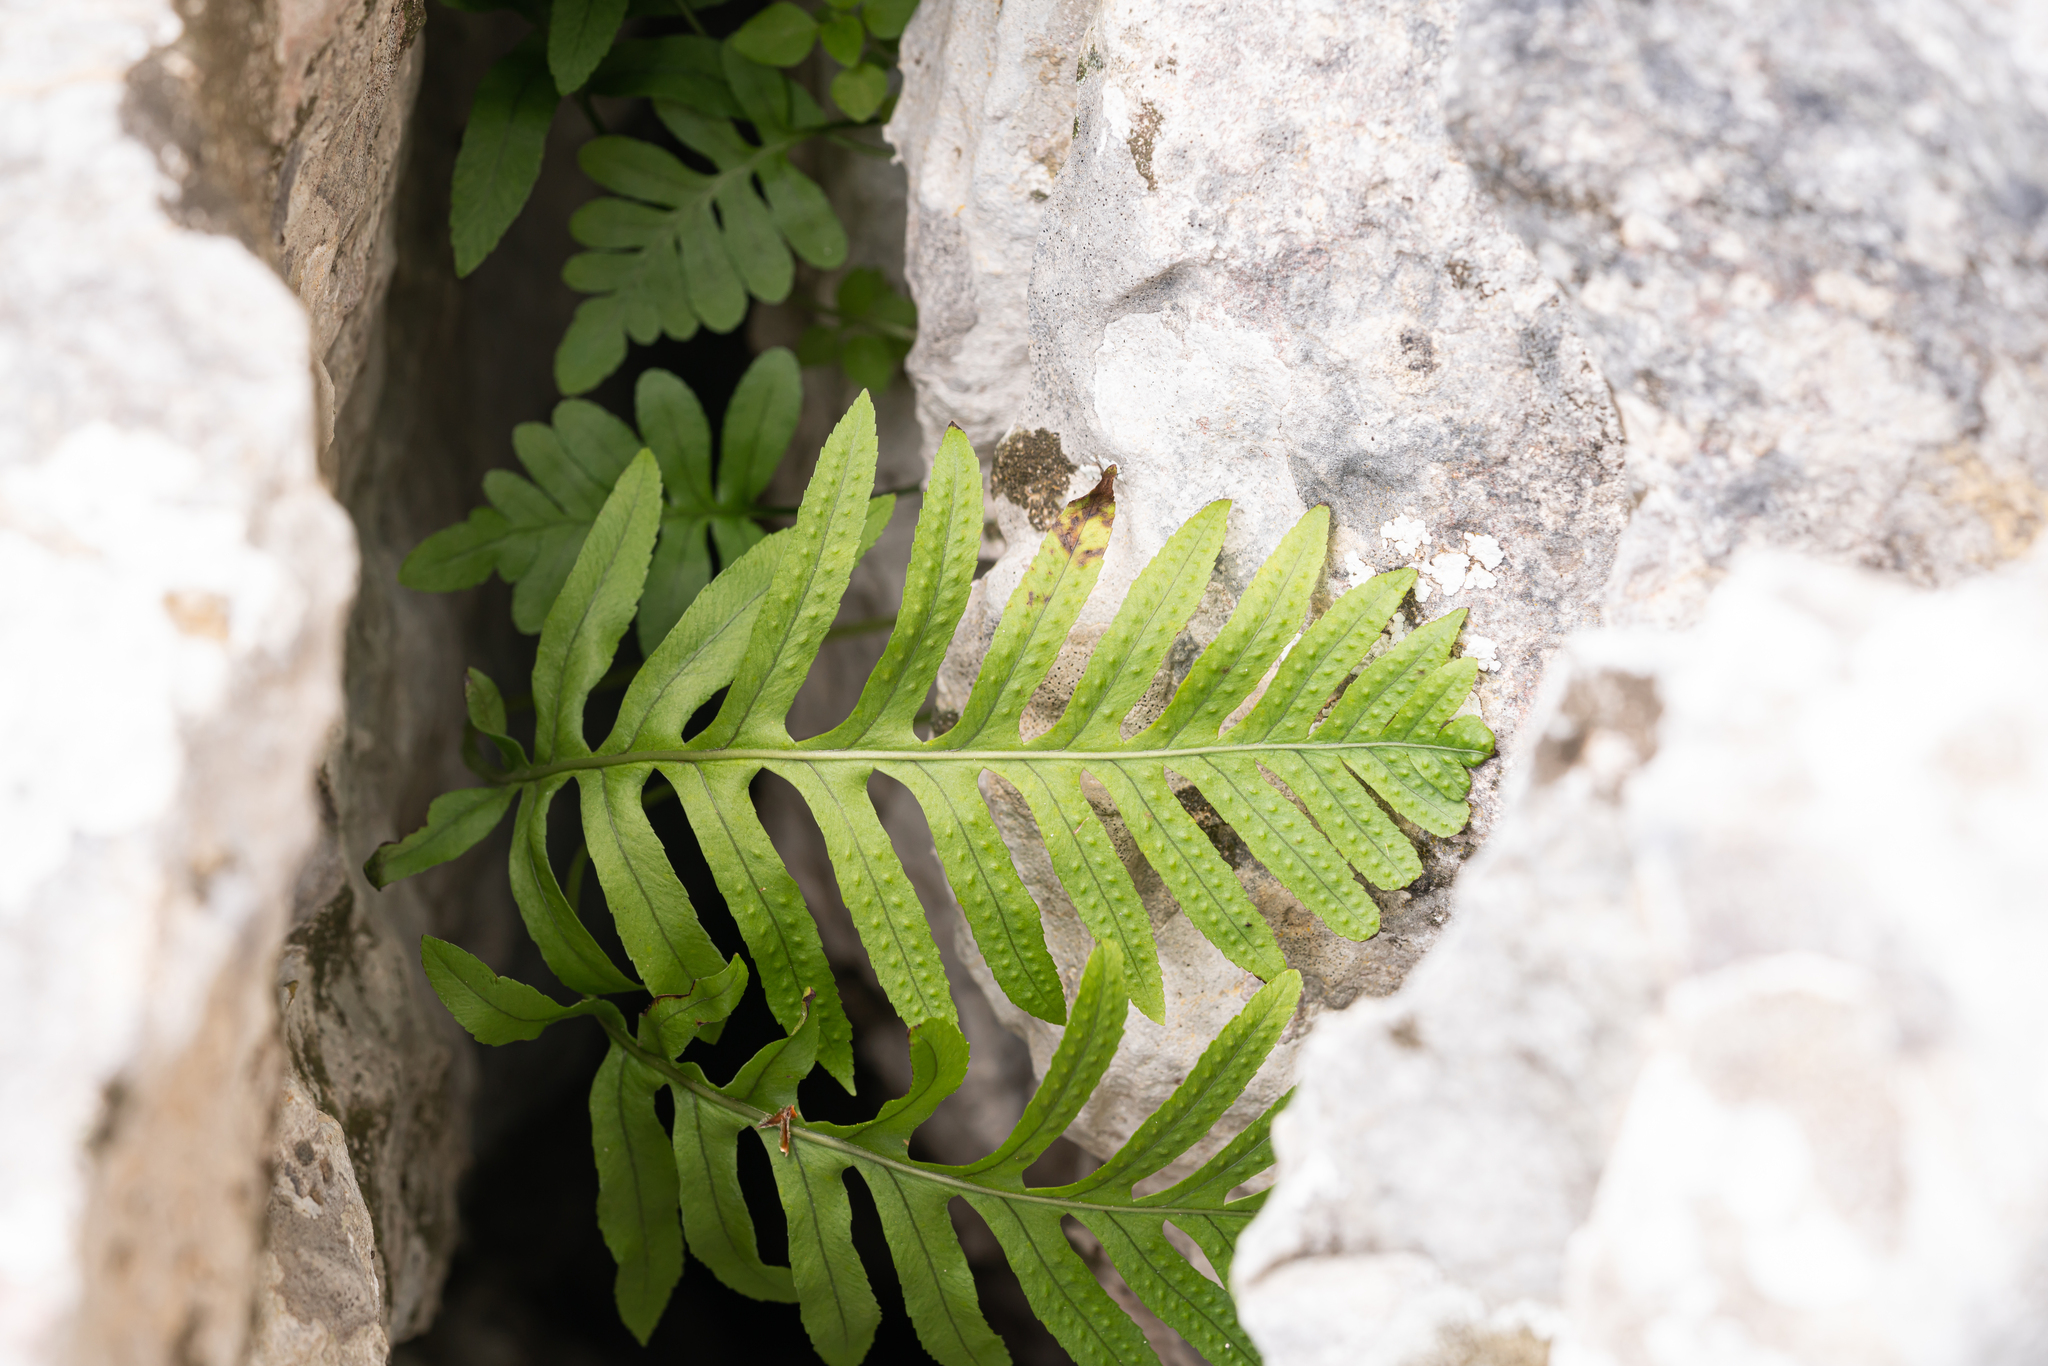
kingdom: Plantae
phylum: Tracheophyta
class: Polypodiopsida
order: Polypodiales
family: Polypodiaceae
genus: Polypodium
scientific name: Polypodium cambricum
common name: Southern polypody
